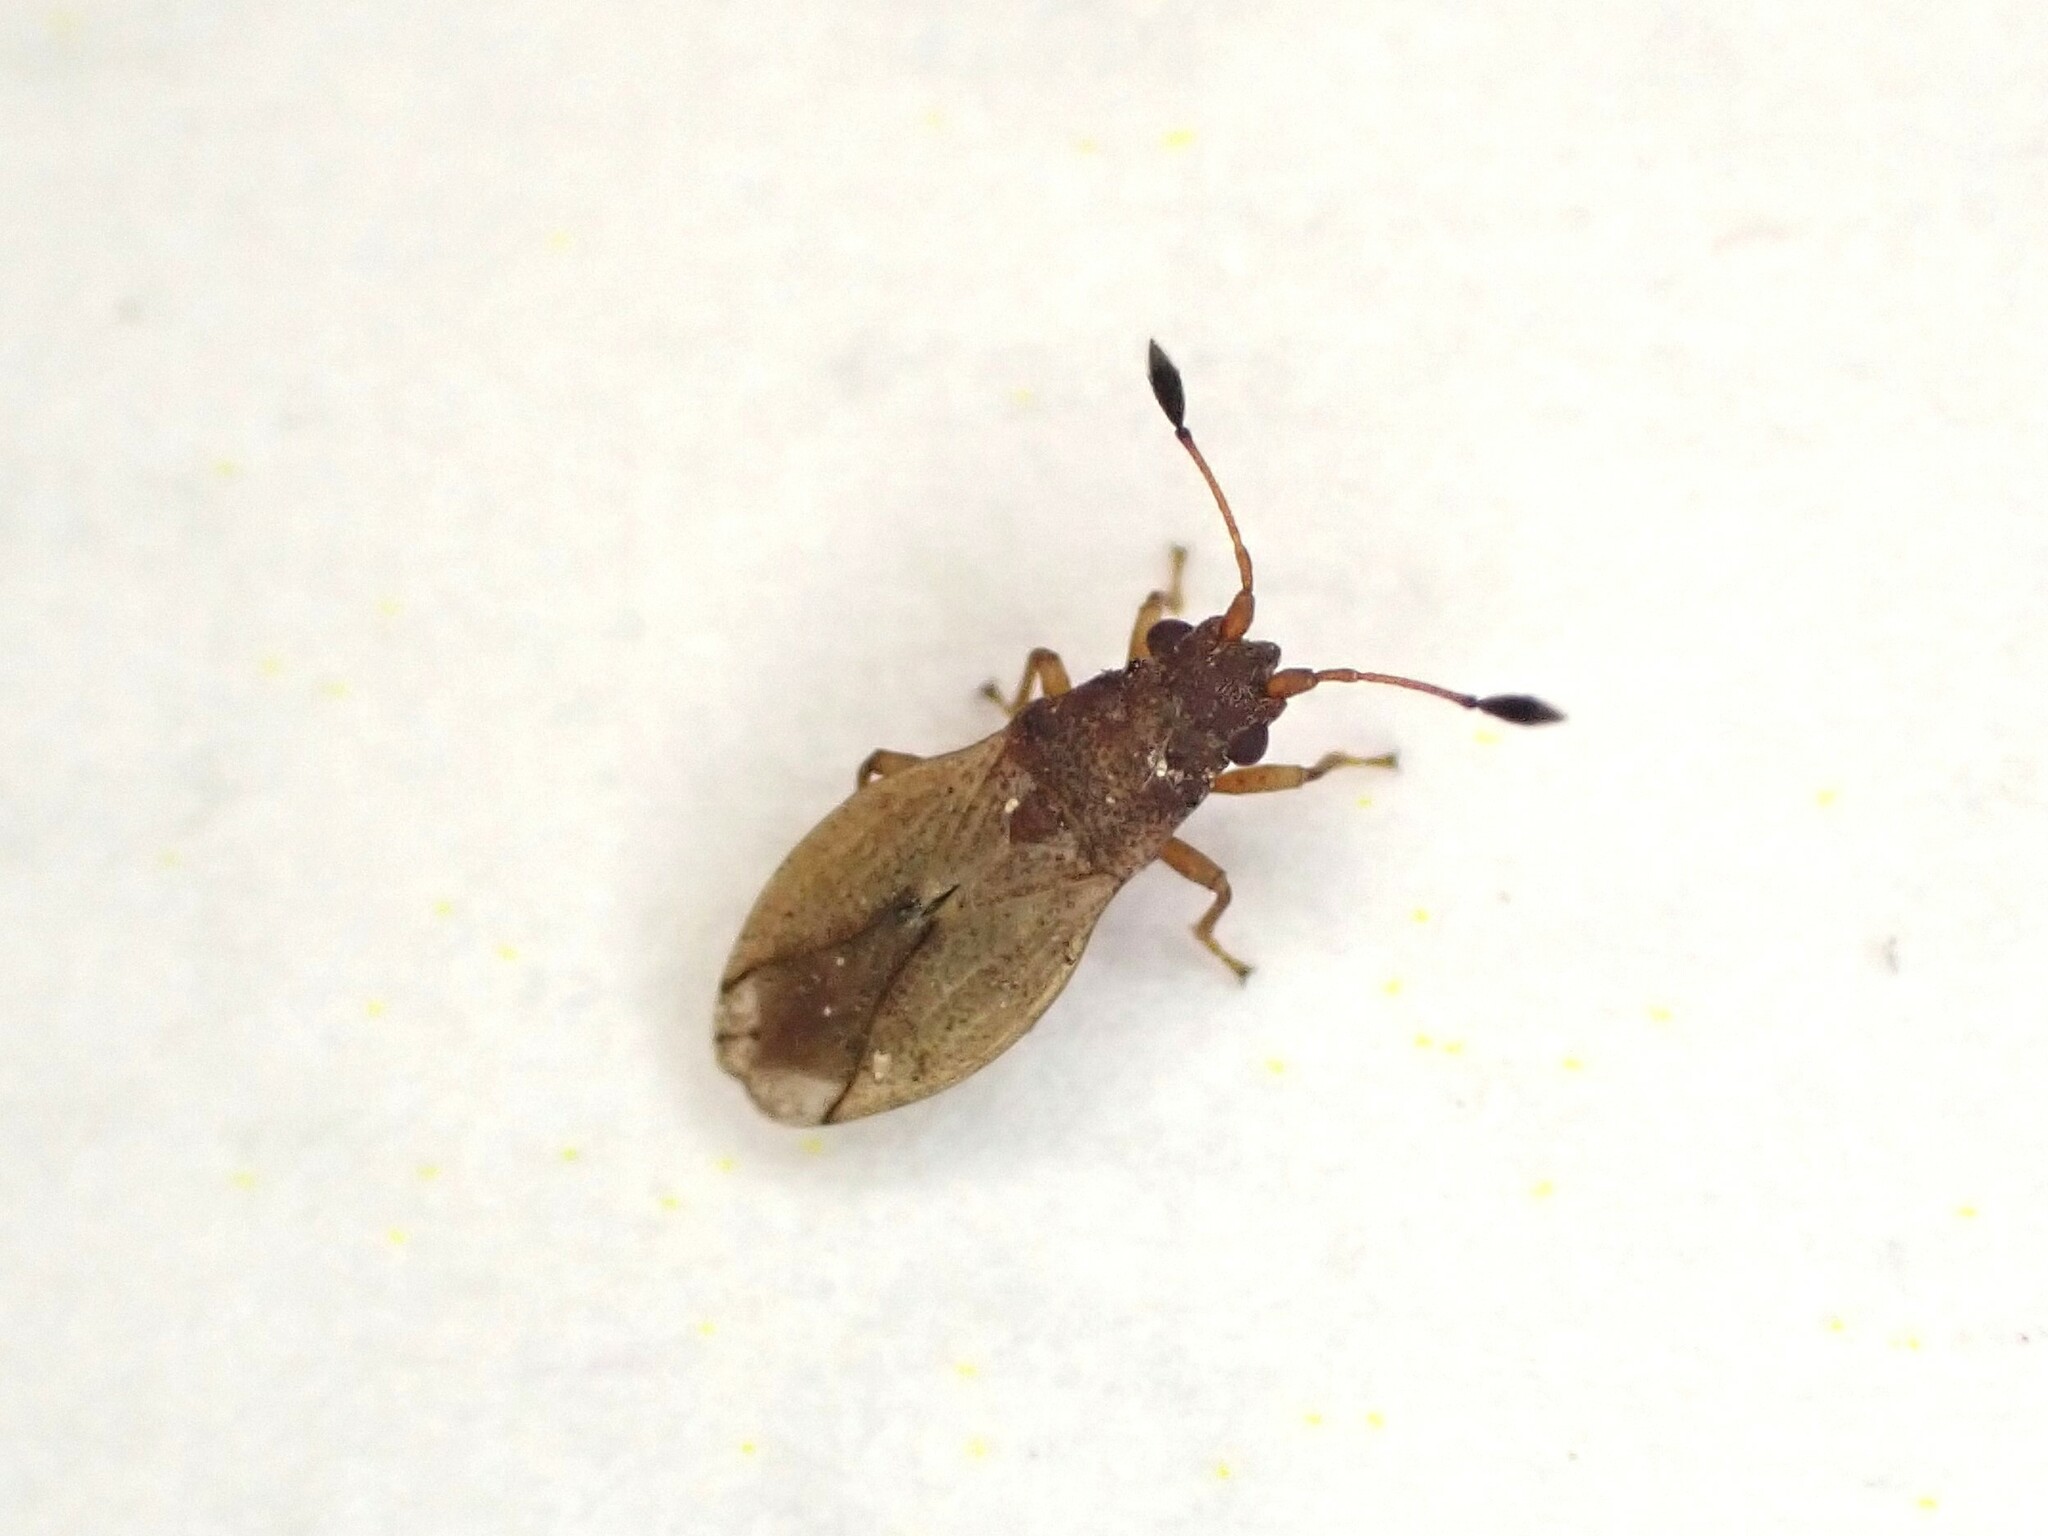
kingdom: Animalia
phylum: Arthropoda
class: Insecta
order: Hemiptera
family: Cymidae
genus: Cymus
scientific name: Cymus novaezelandiae
